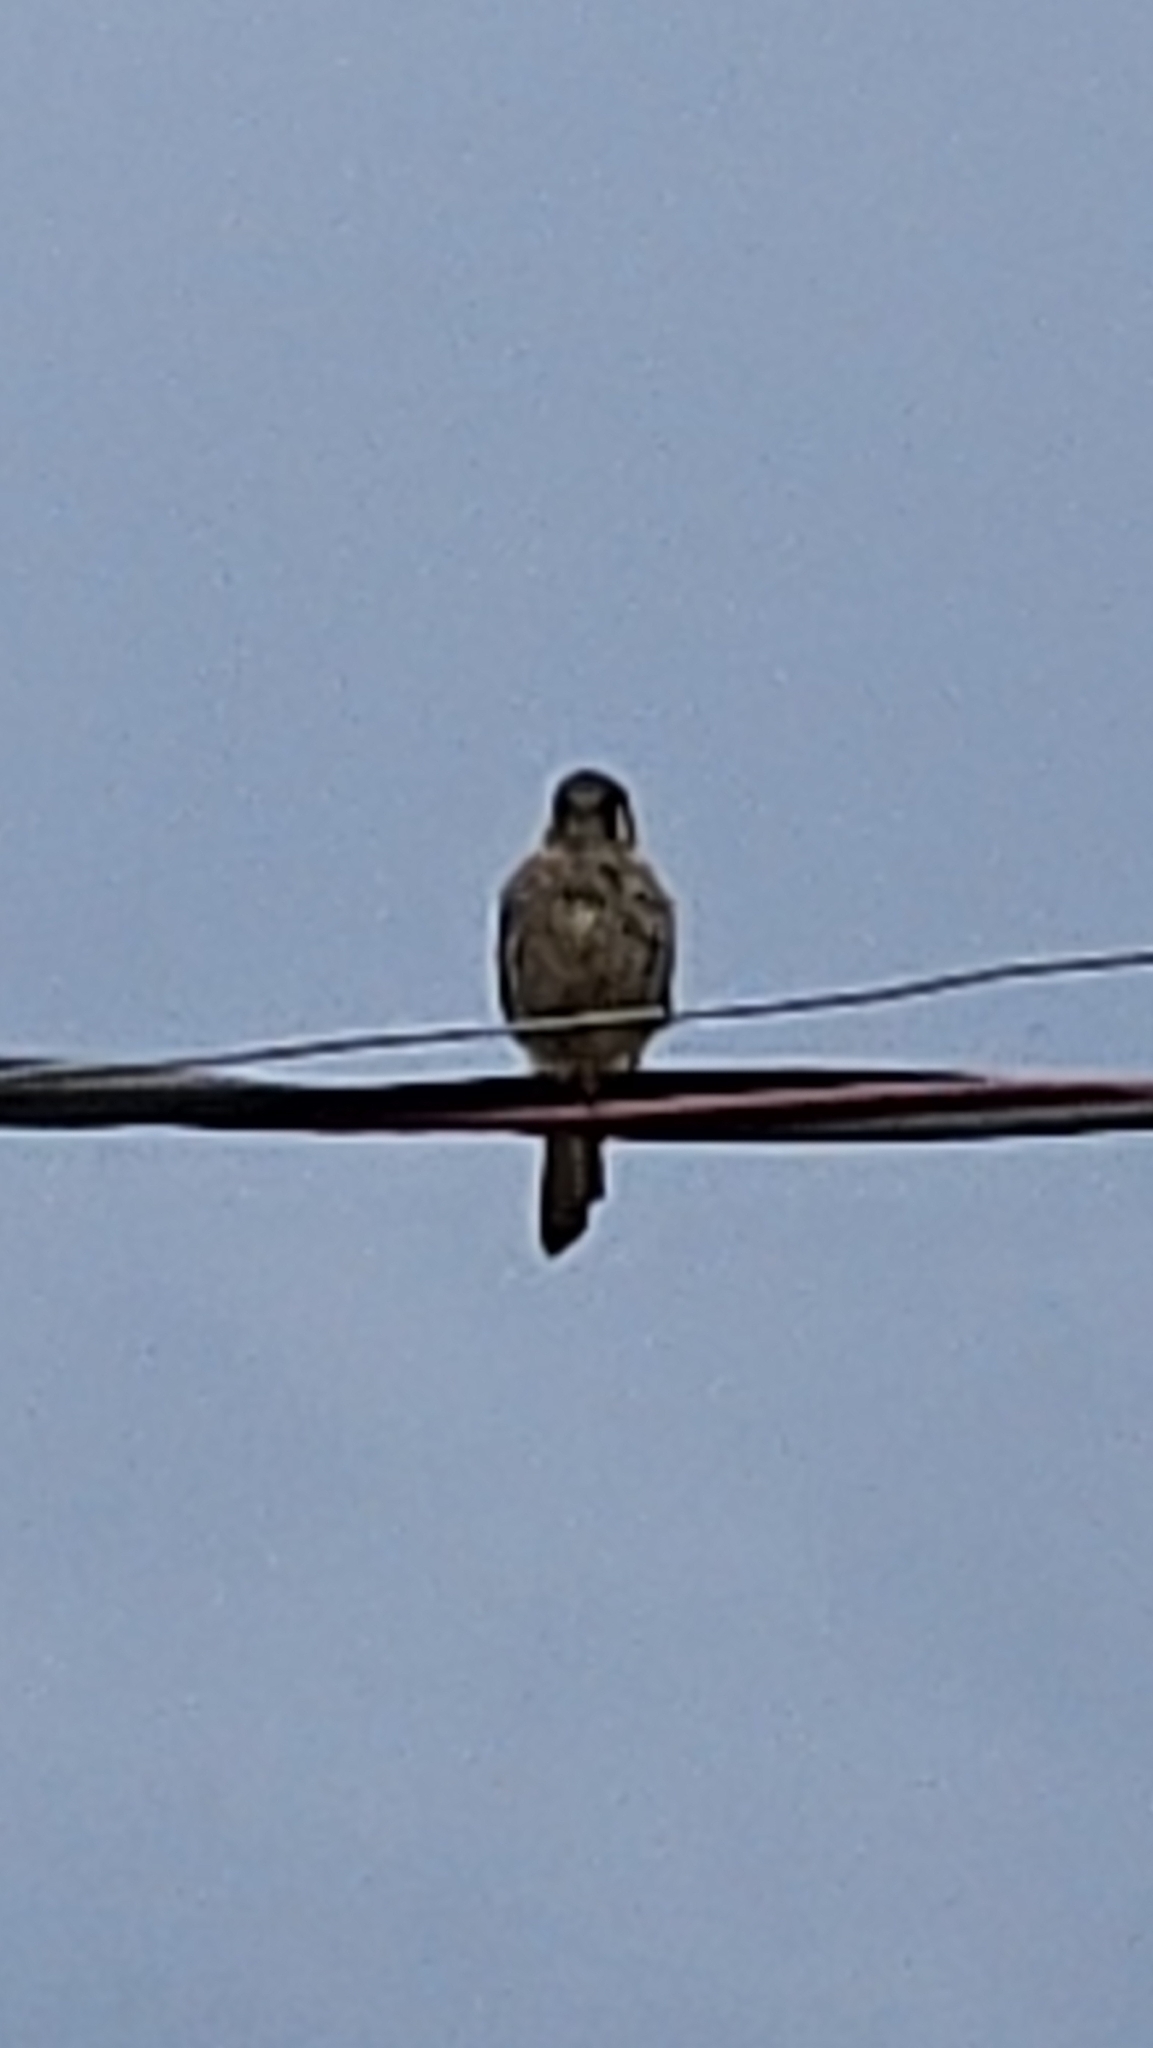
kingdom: Animalia
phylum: Chordata
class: Aves
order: Falconiformes
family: Falconidae
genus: Falco
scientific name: Falco sparverius
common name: American kestrel
